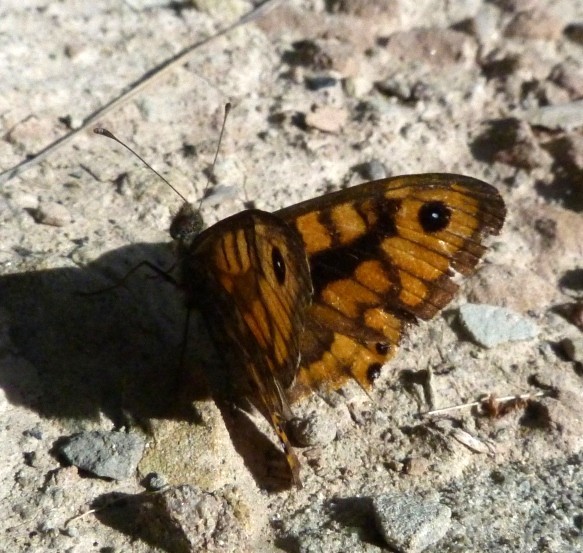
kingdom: Animalia
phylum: Arthropoda
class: Insecta
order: Lepidoptera
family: Nymphalidae
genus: Pararge
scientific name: Pararge Lasiommata megera
